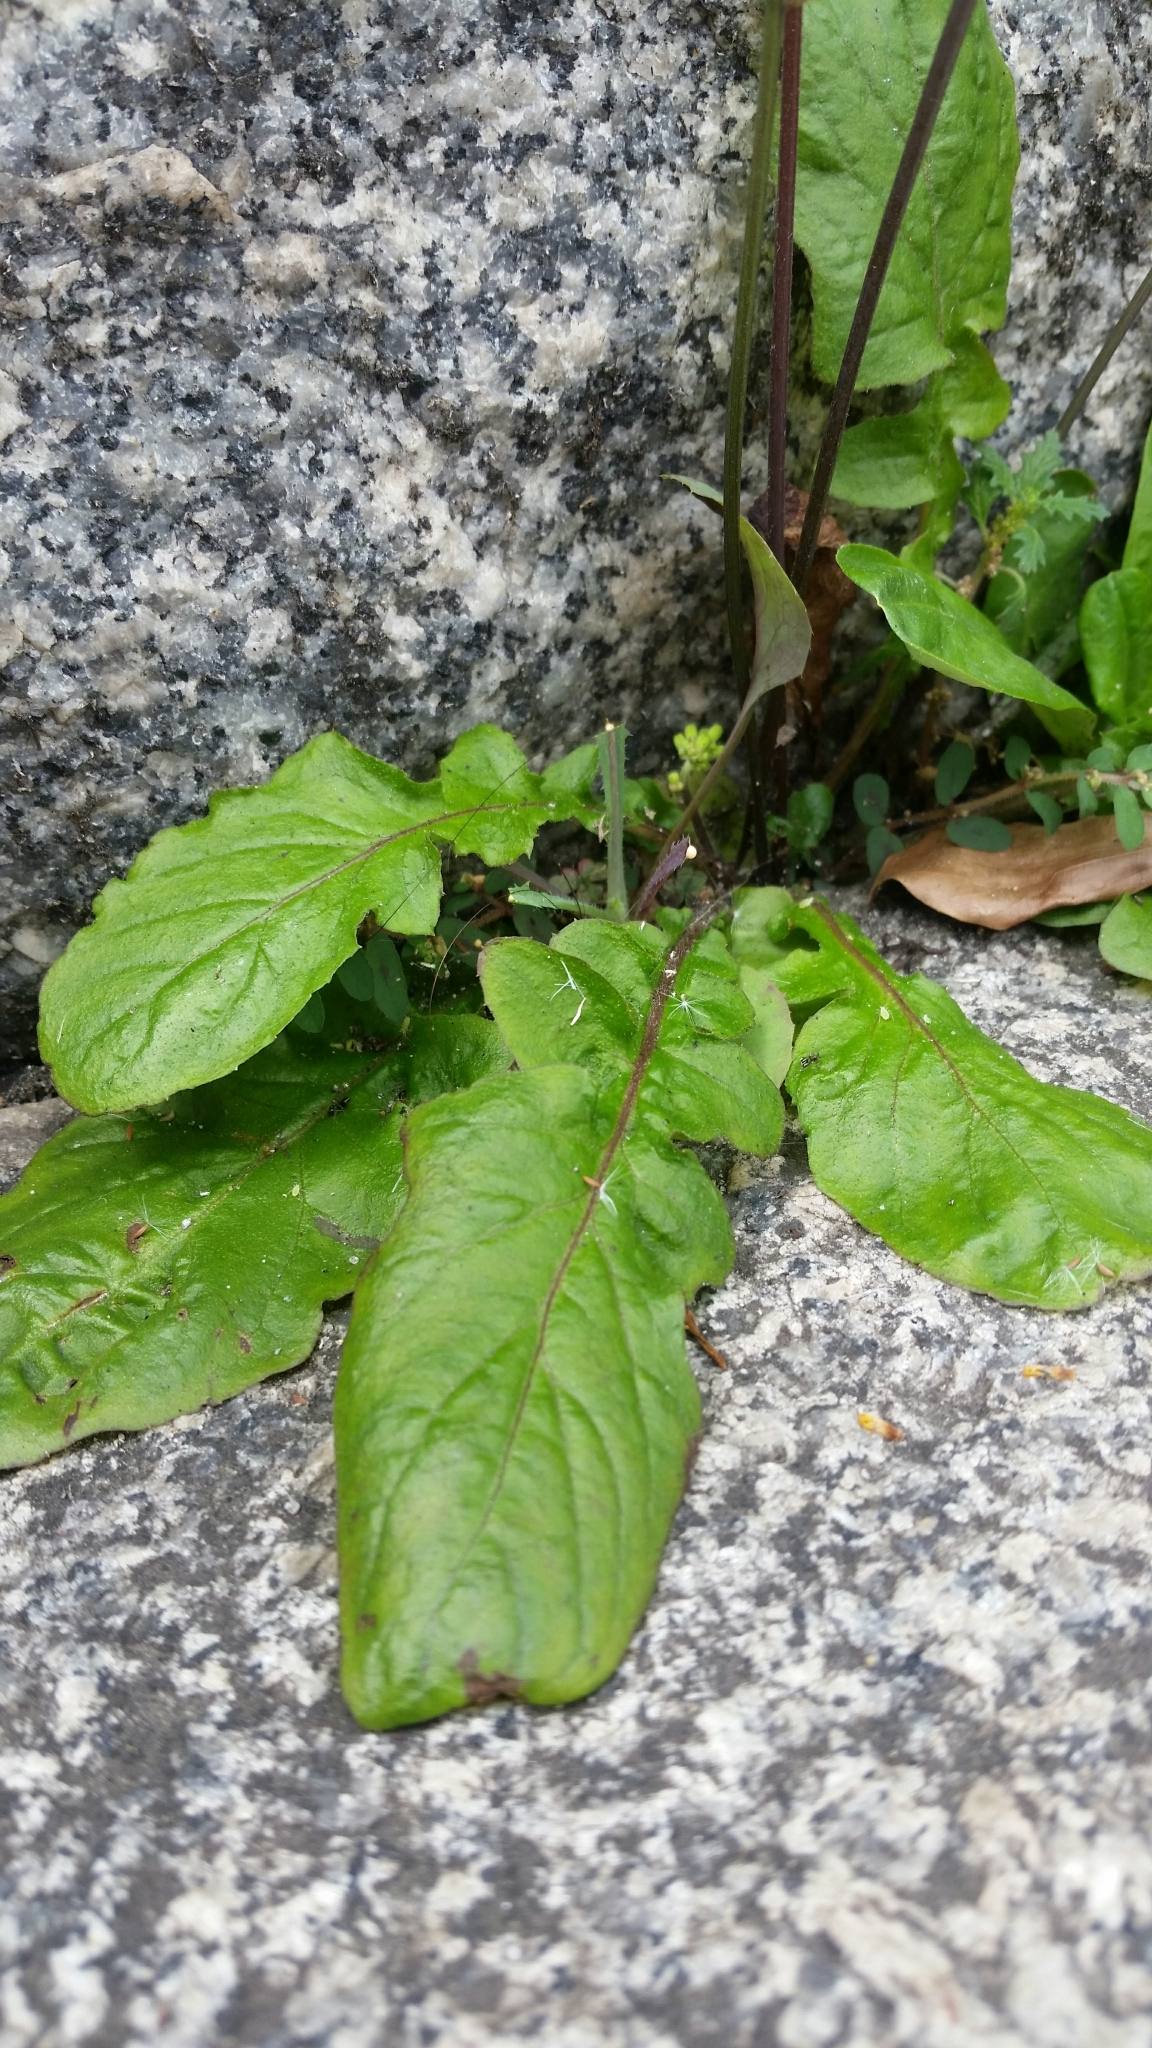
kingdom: Plantae
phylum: Tracheophyta
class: Magnoliopsida
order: Asterales
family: Asteraceae
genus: Youngia
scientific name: Youngia japonica
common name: Oriental false hawksbeard
